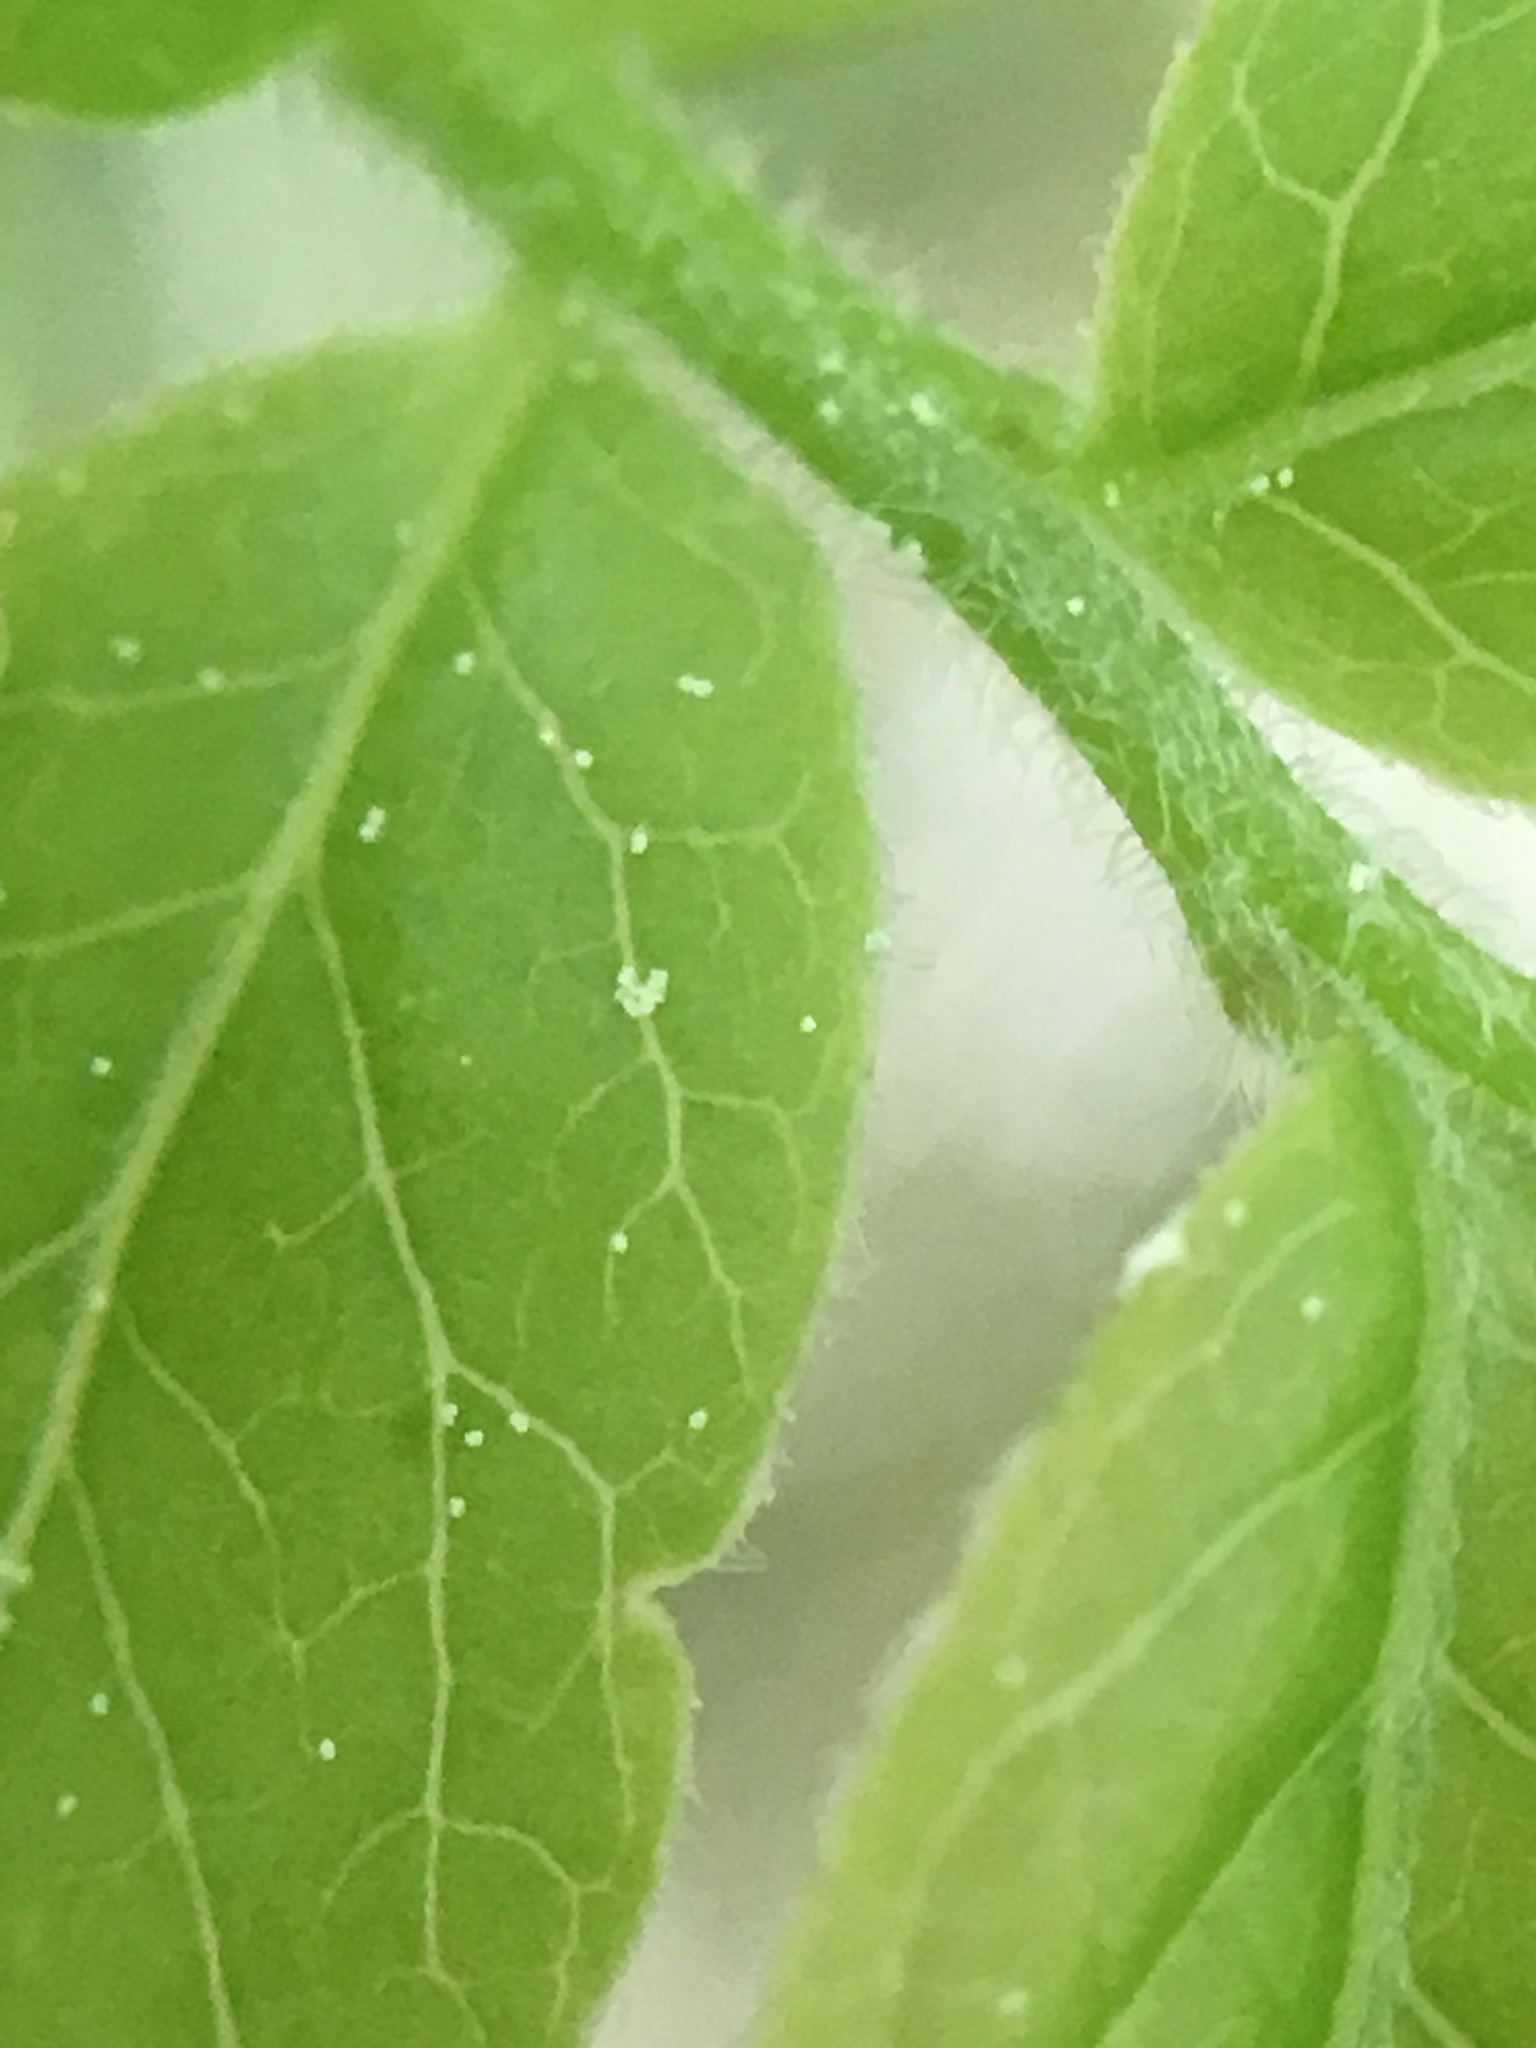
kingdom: Plantae
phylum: Tracheophyta
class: Magnoliopsida
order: Ericales
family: Ericaceae
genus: Vaccinium
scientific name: Vaccinium myrtilloides
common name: Canada blueberry
